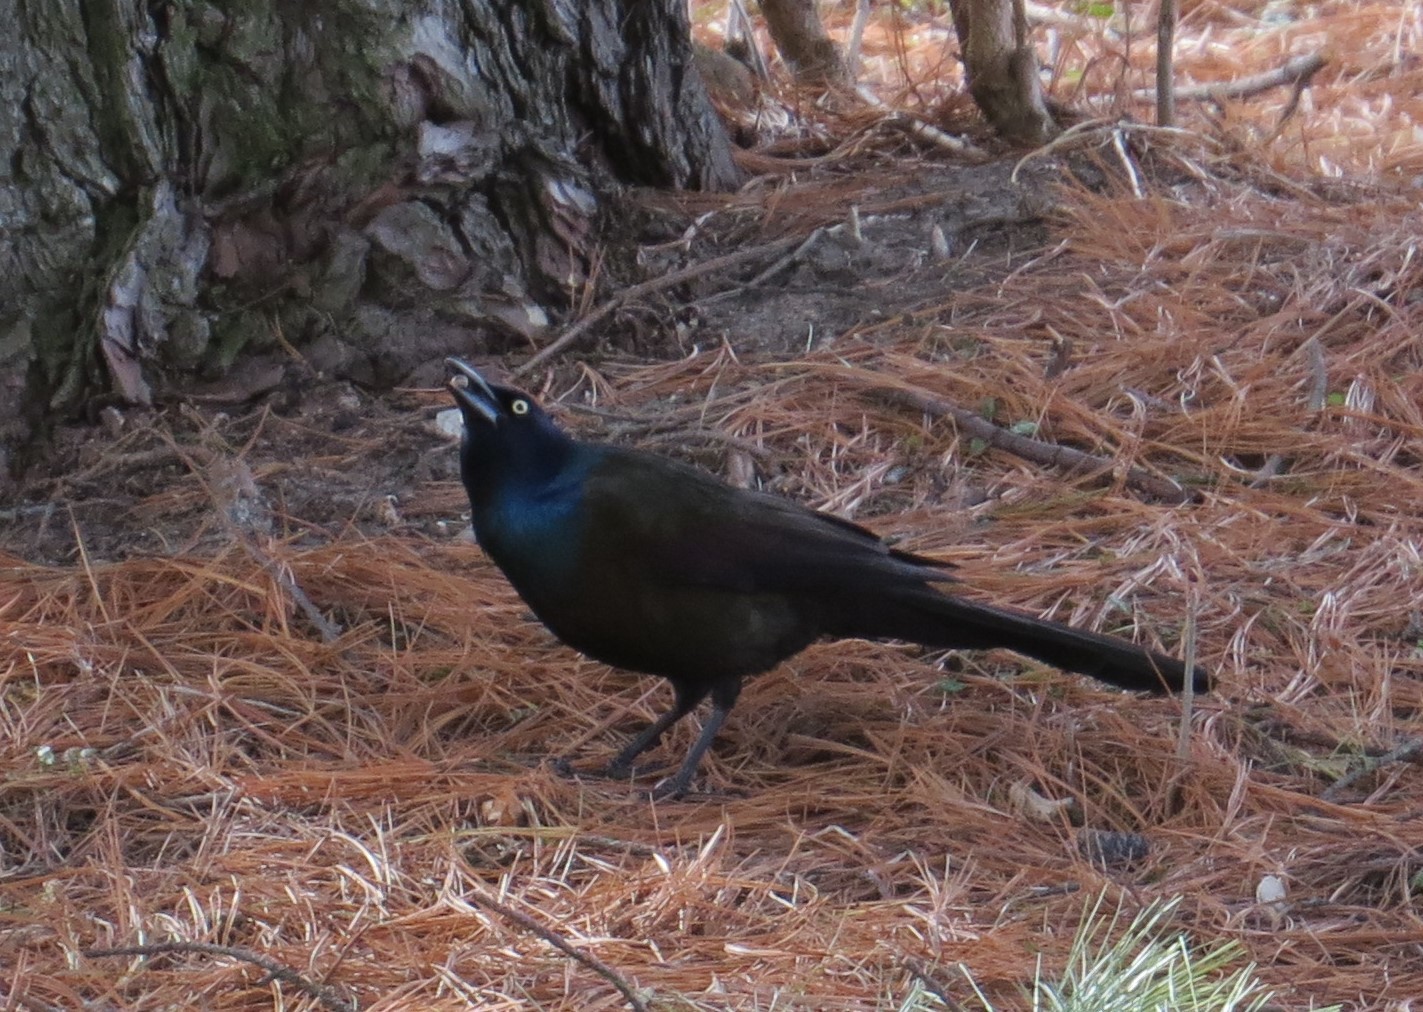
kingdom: Animalia
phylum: Chordata
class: Aves
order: Passeriformes
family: Icteridae
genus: Quiscalus
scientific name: Quiscalus quiscula
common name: Common grackle
